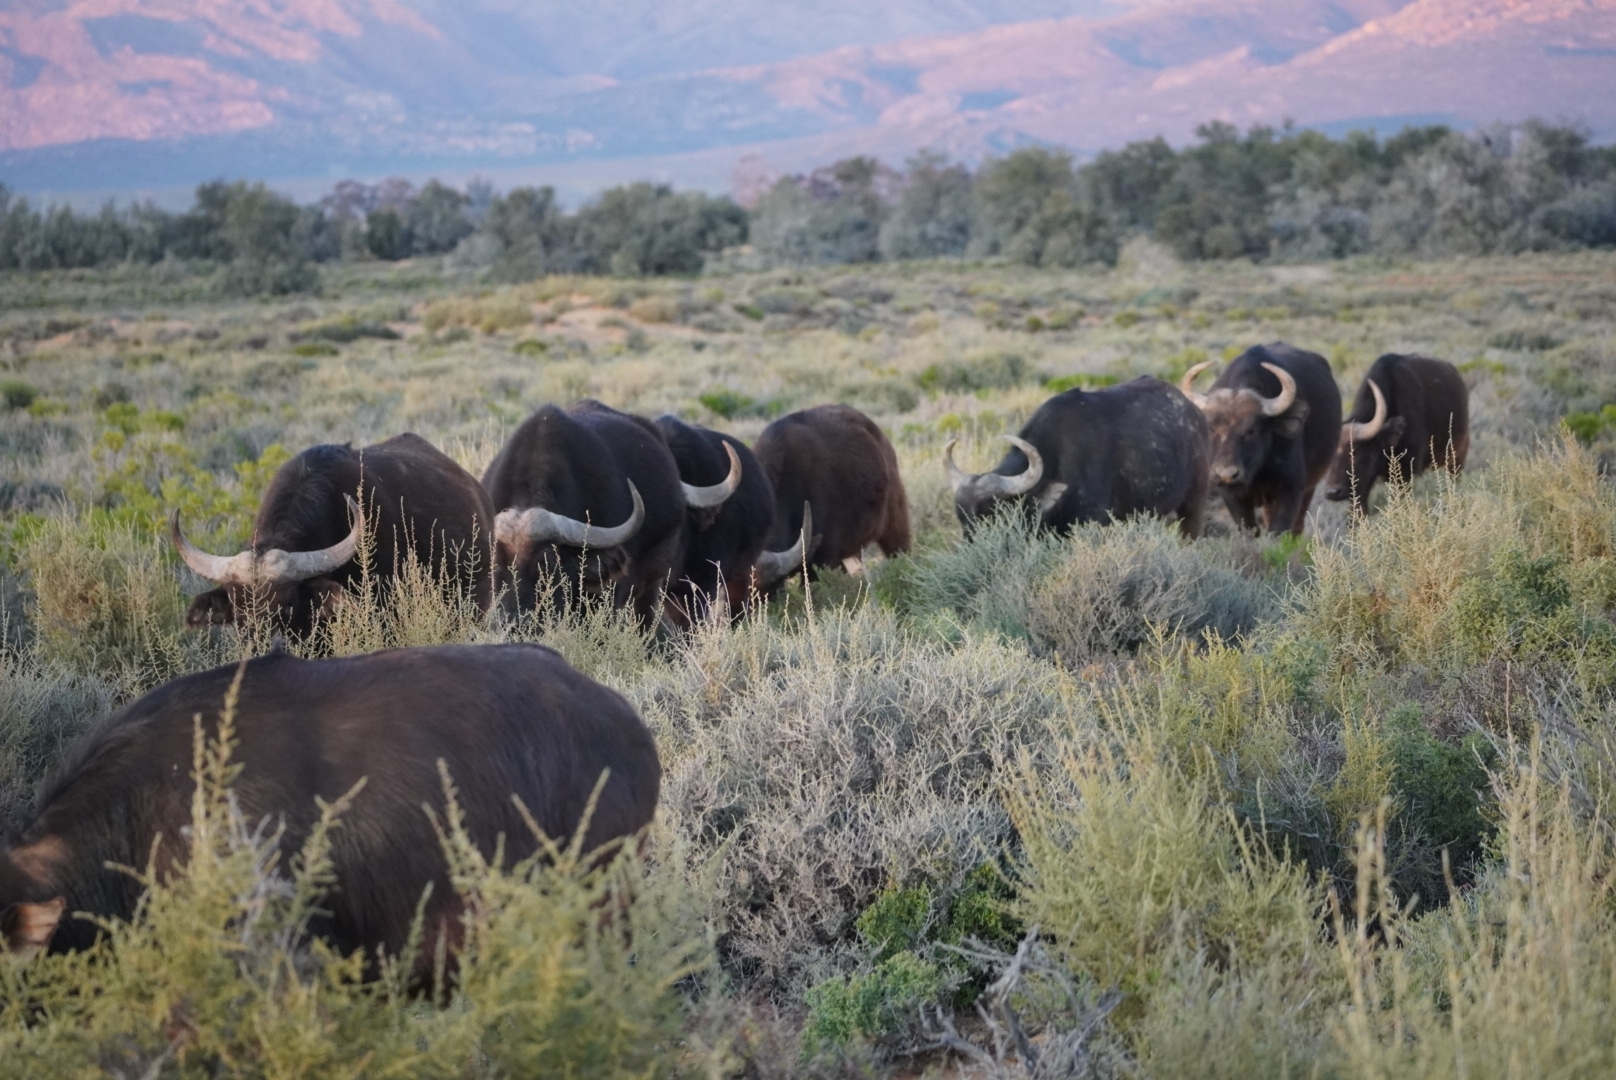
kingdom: Animalia
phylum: Chordata
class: Mammalia
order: Artiodactyla
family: Bovidae
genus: Syncerus
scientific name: Syncerus caffer
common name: African buffalo
